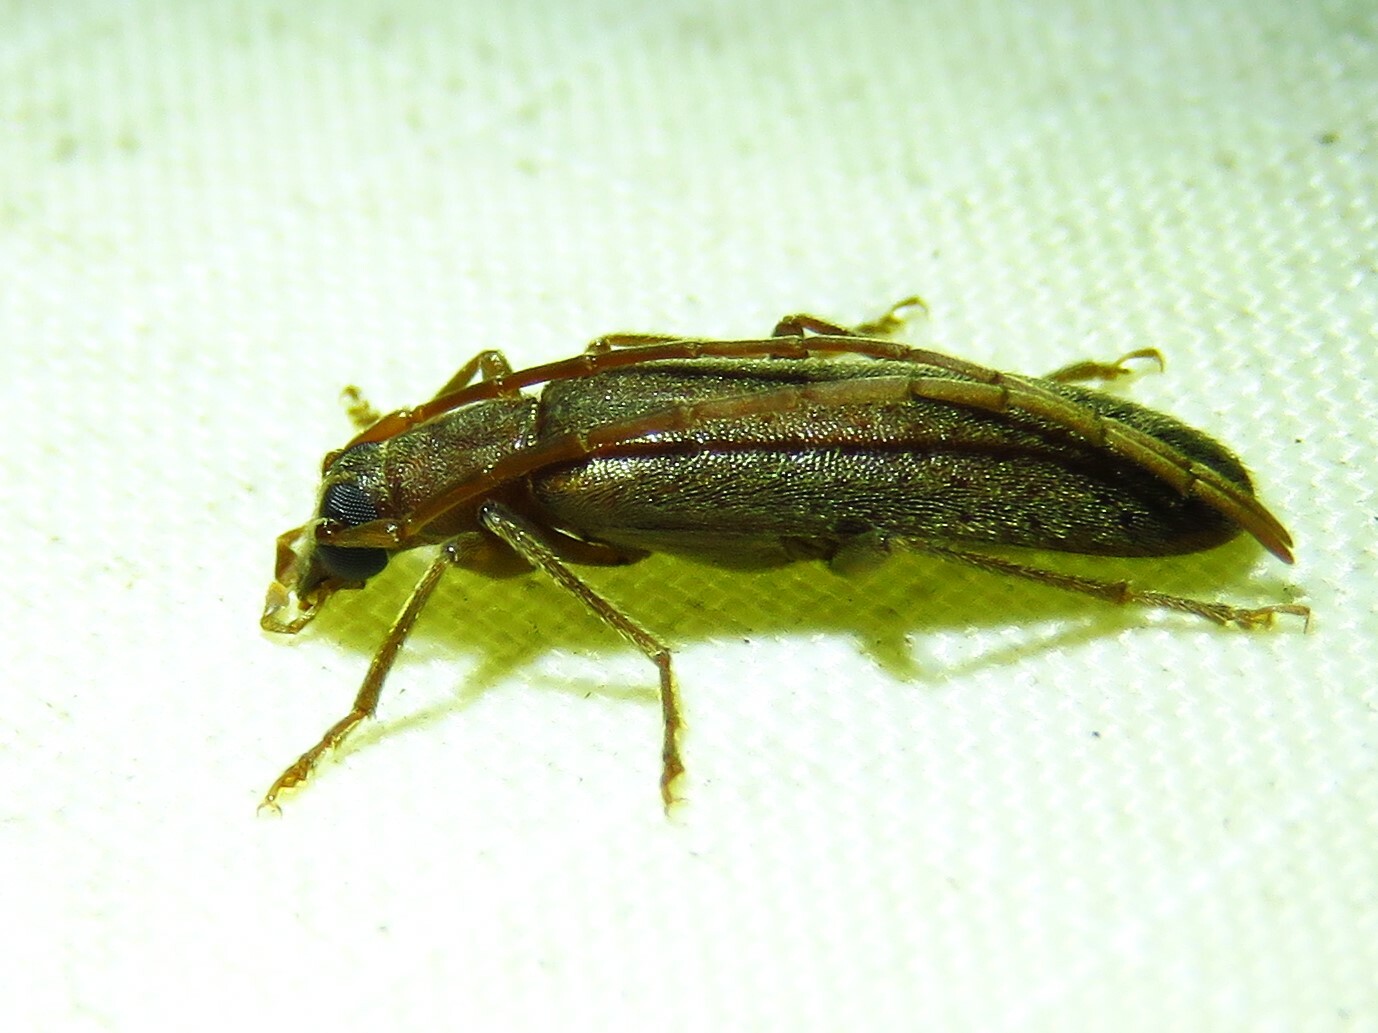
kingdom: Animalia
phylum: Arthropoda
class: Insecta
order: Coleoptera
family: Oedemeridae
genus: Sparedrus
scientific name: Sparedrus aspersus
